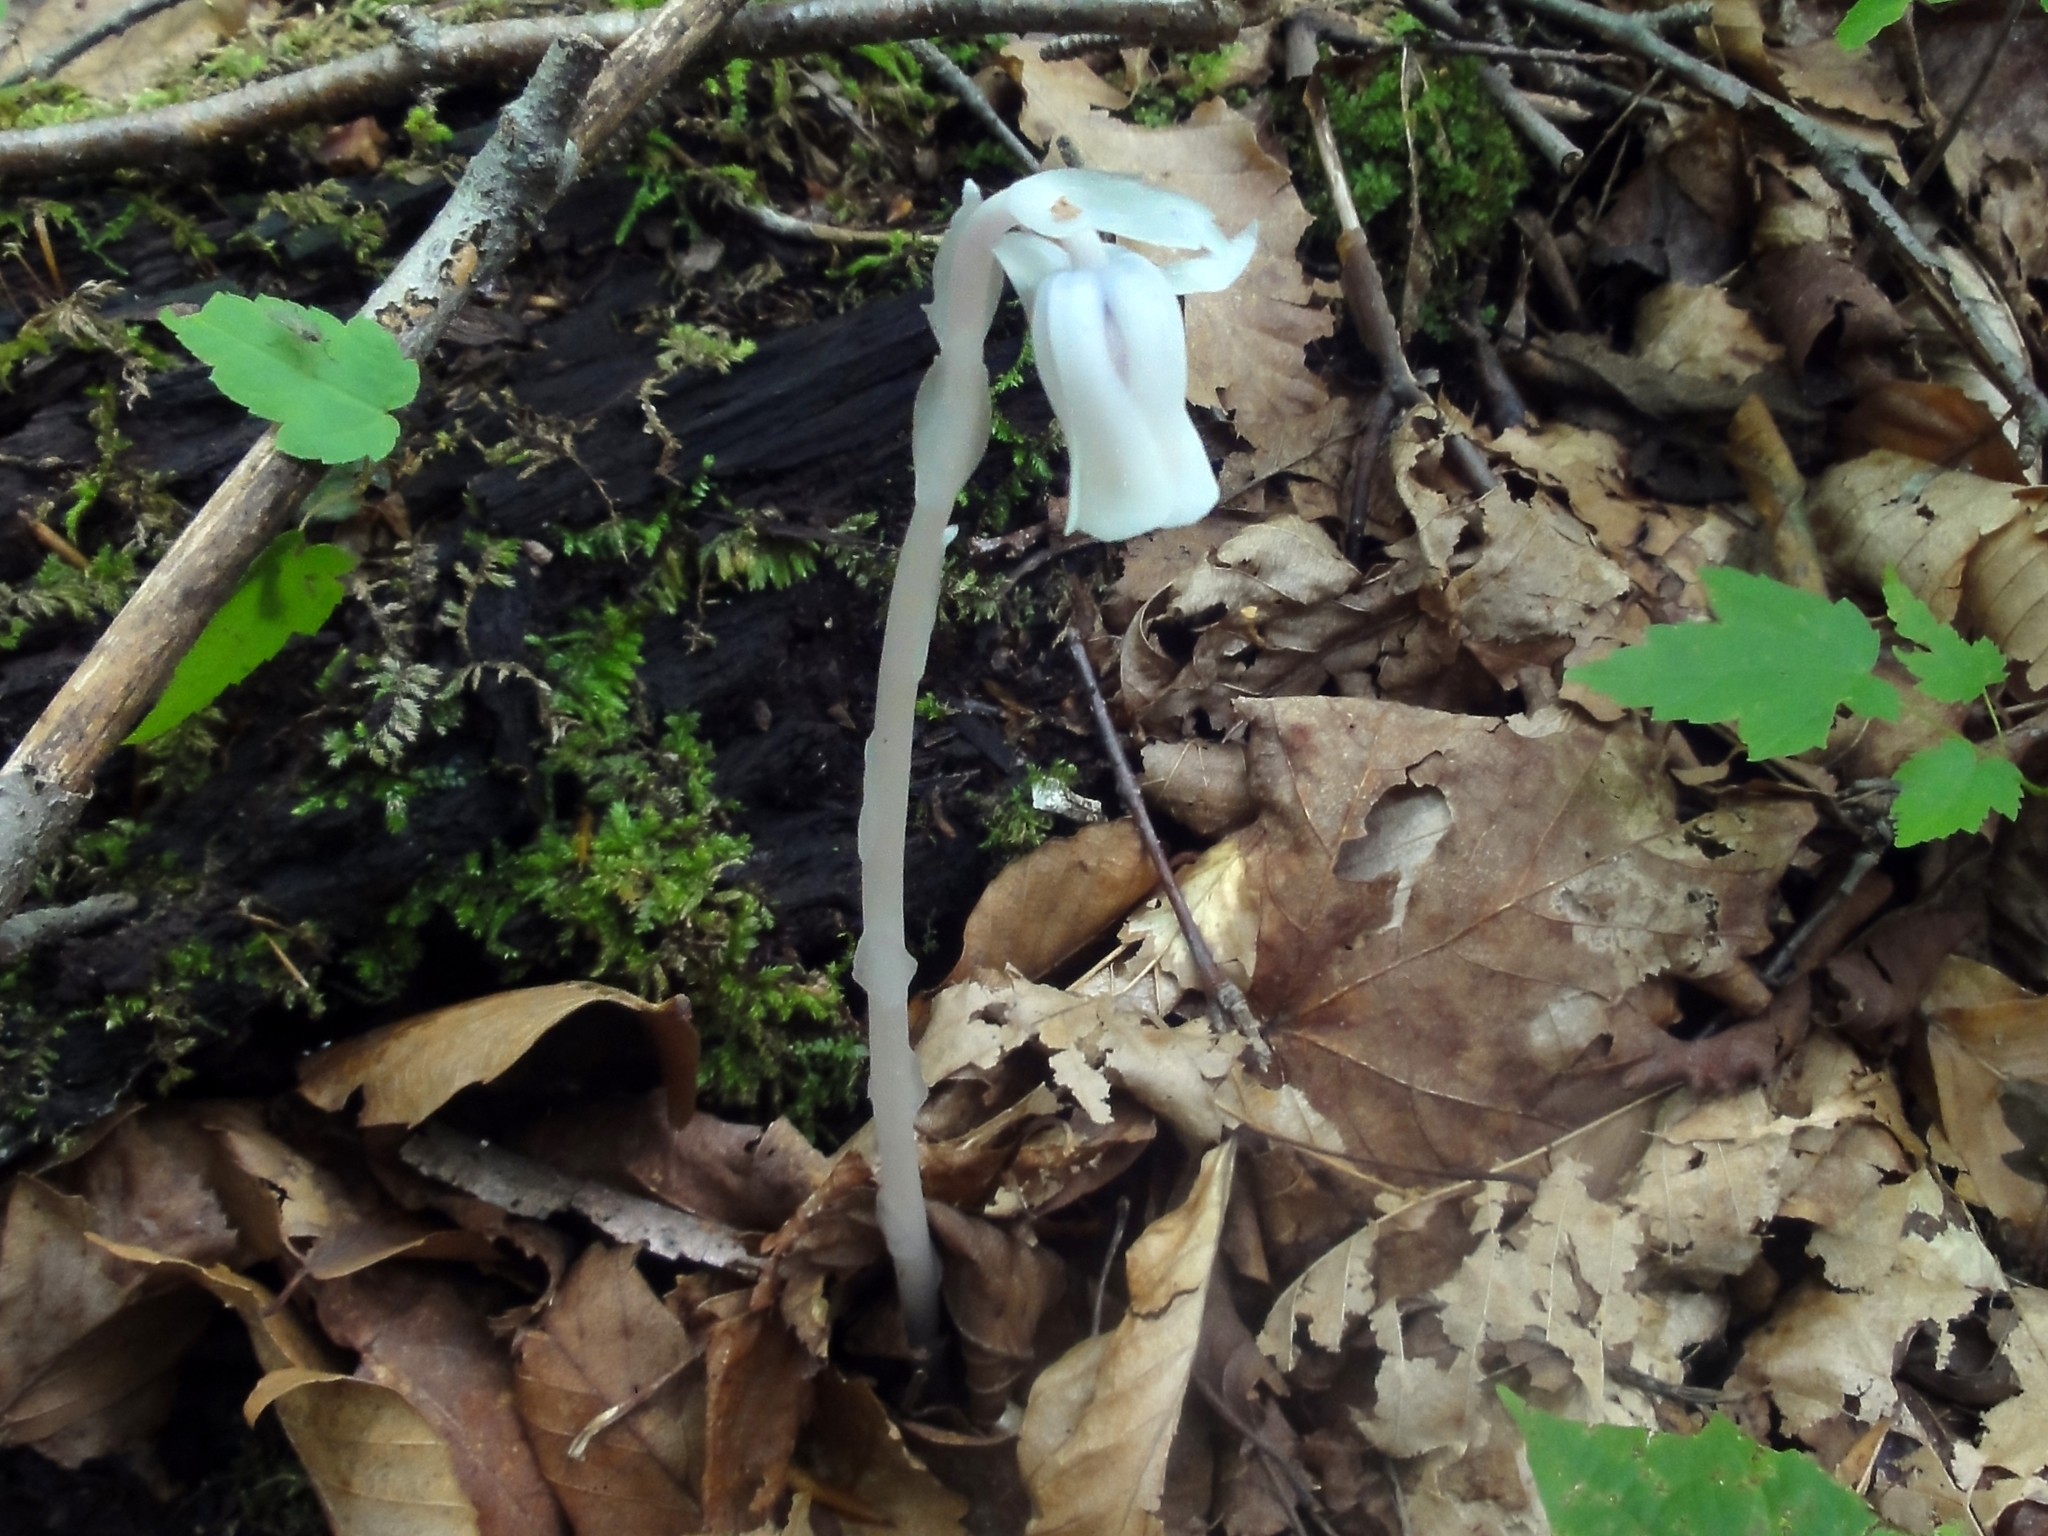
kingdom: Plantae
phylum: Tracheophyta
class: Magnoliopsida
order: Ericales
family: Ericaceae
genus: Monotropa
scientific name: Monotropa uniflora
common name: Convulsion root
